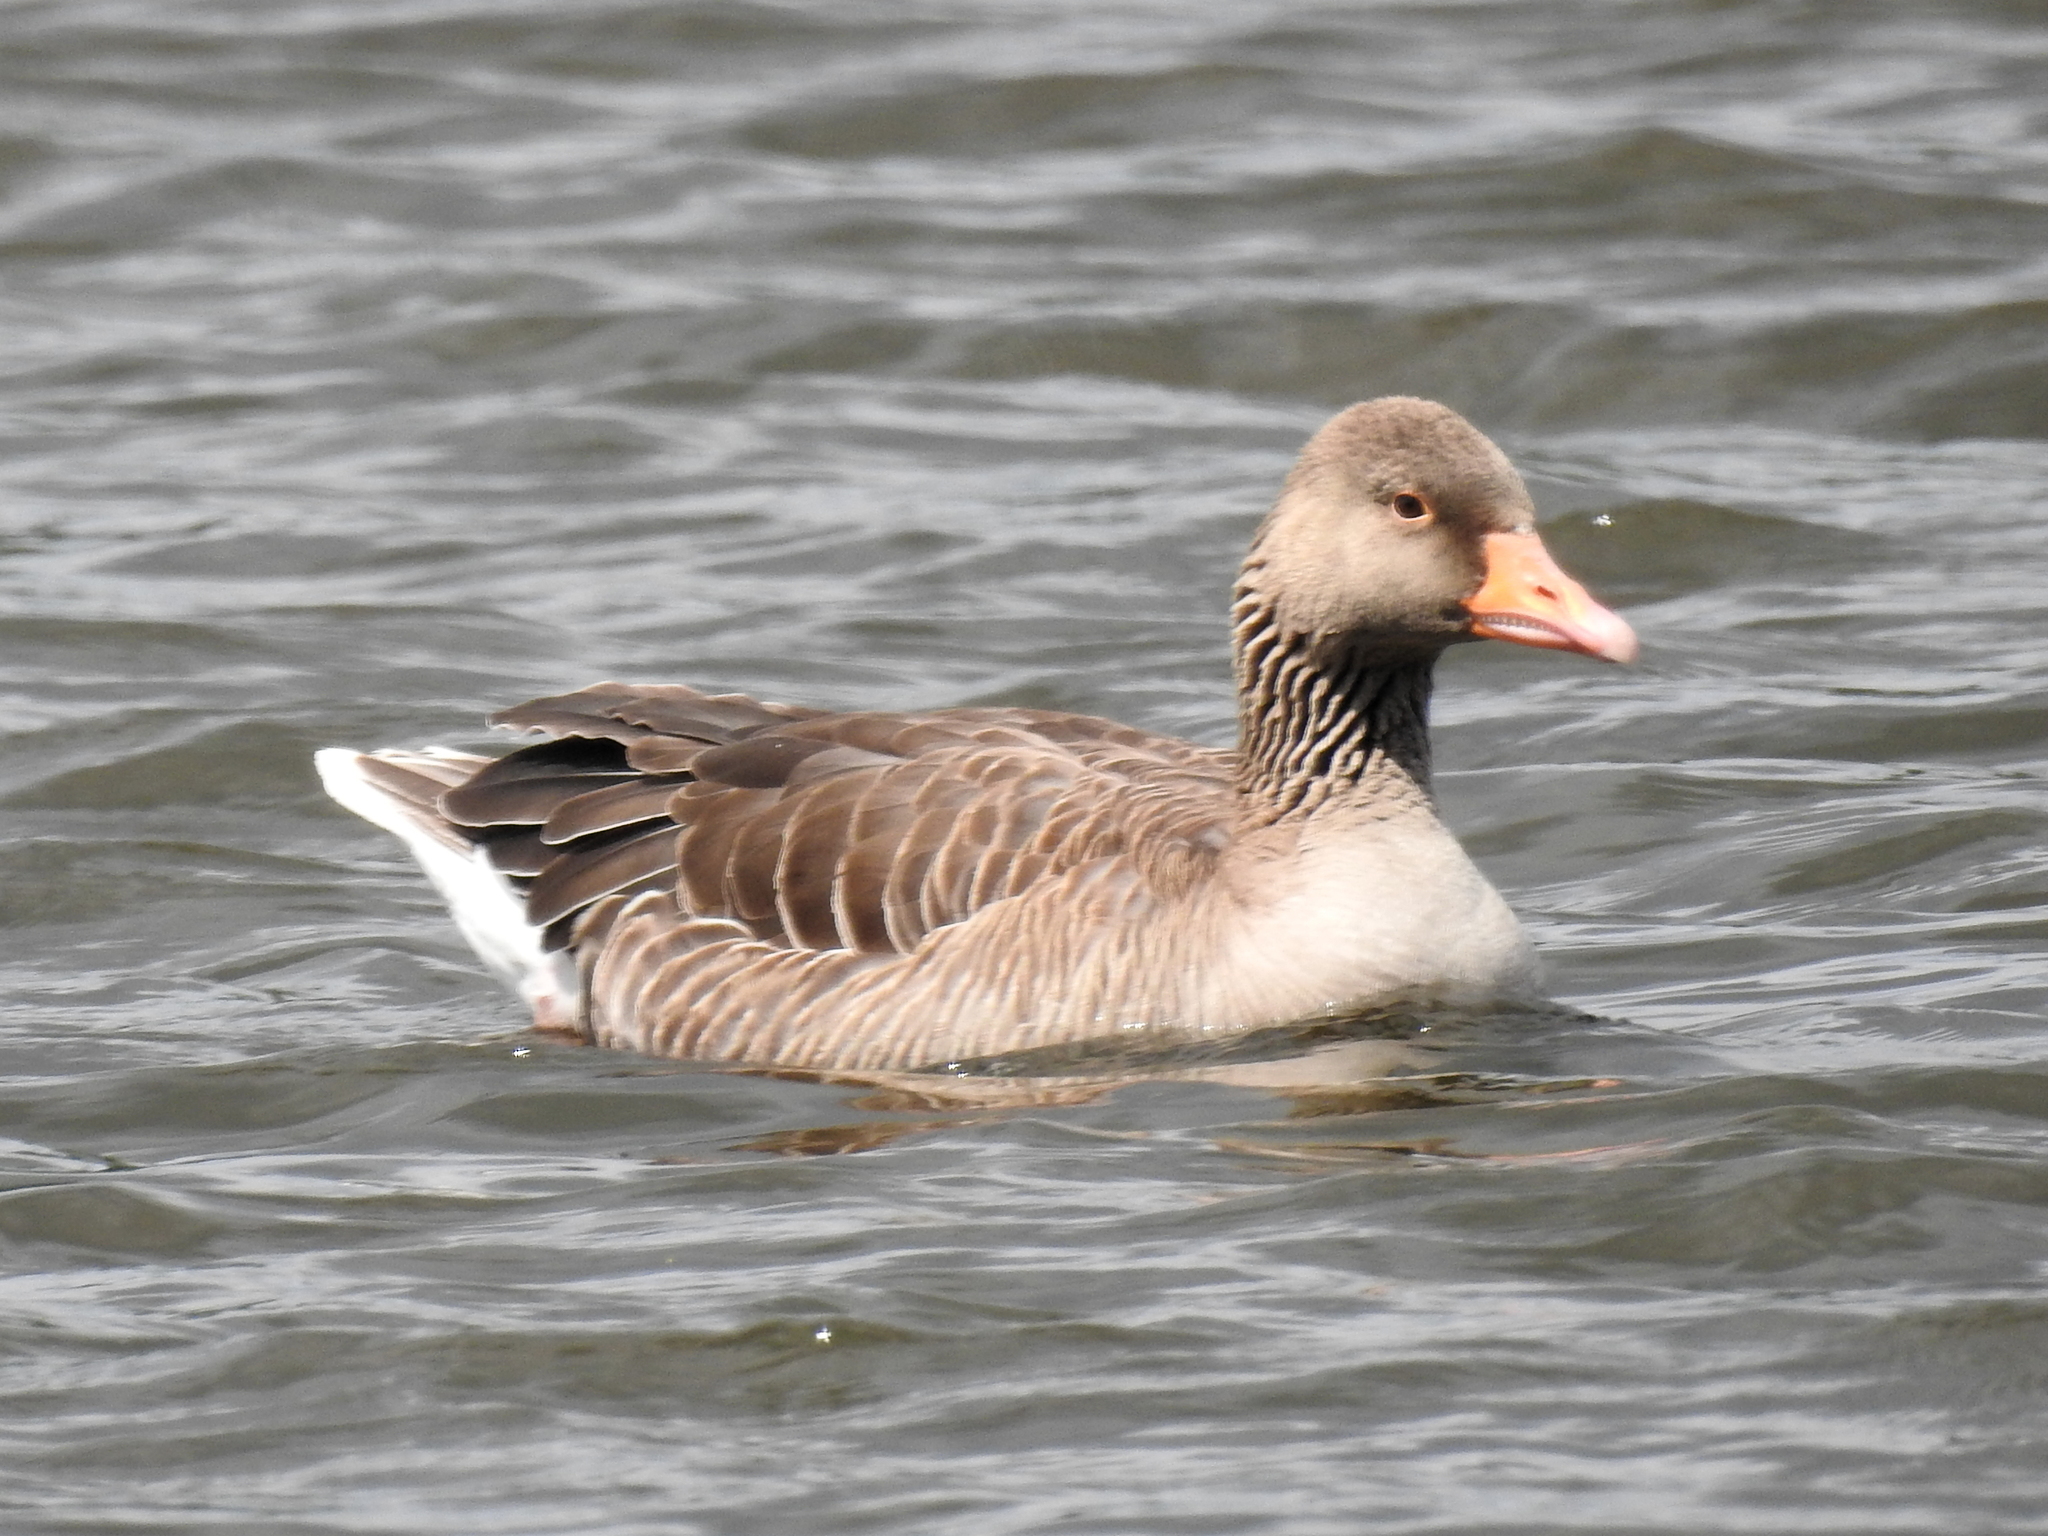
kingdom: Animalia
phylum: Chordata
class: Aves
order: Anseriformes
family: Anatidae
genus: Anser
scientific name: Anser anser
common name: Greylag goose
